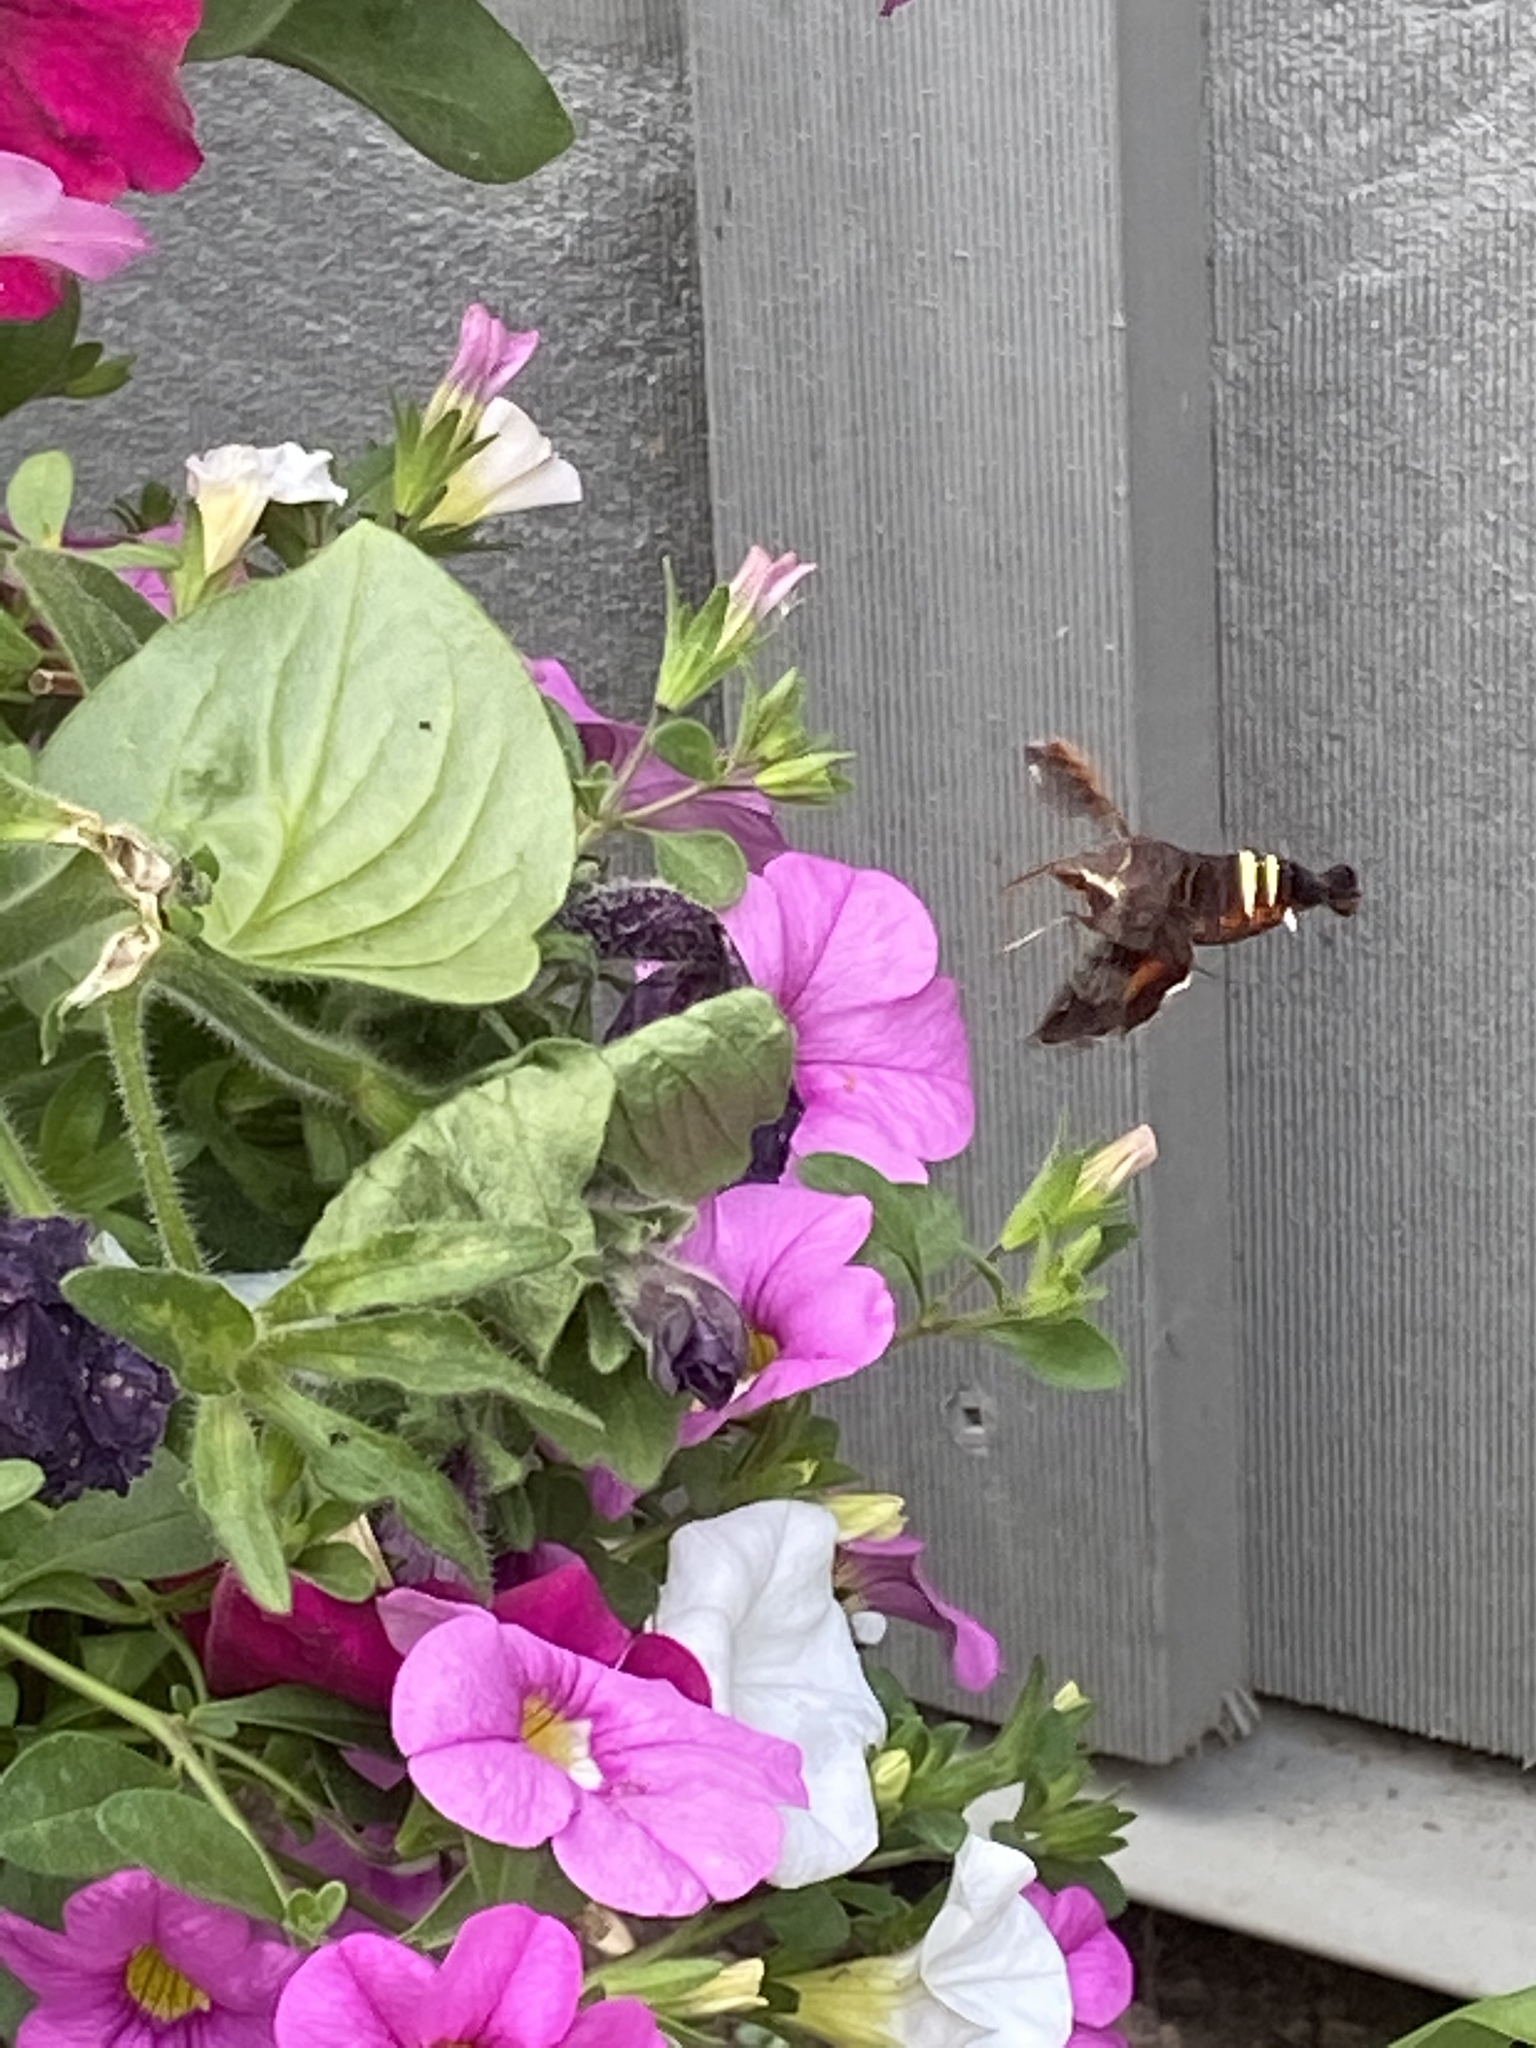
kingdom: Animalia
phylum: Arthropoda
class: Insecta
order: Lepidoptera
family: Sphingidae
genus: Amphion
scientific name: Amphion floridensis
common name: Nessus sphinx
